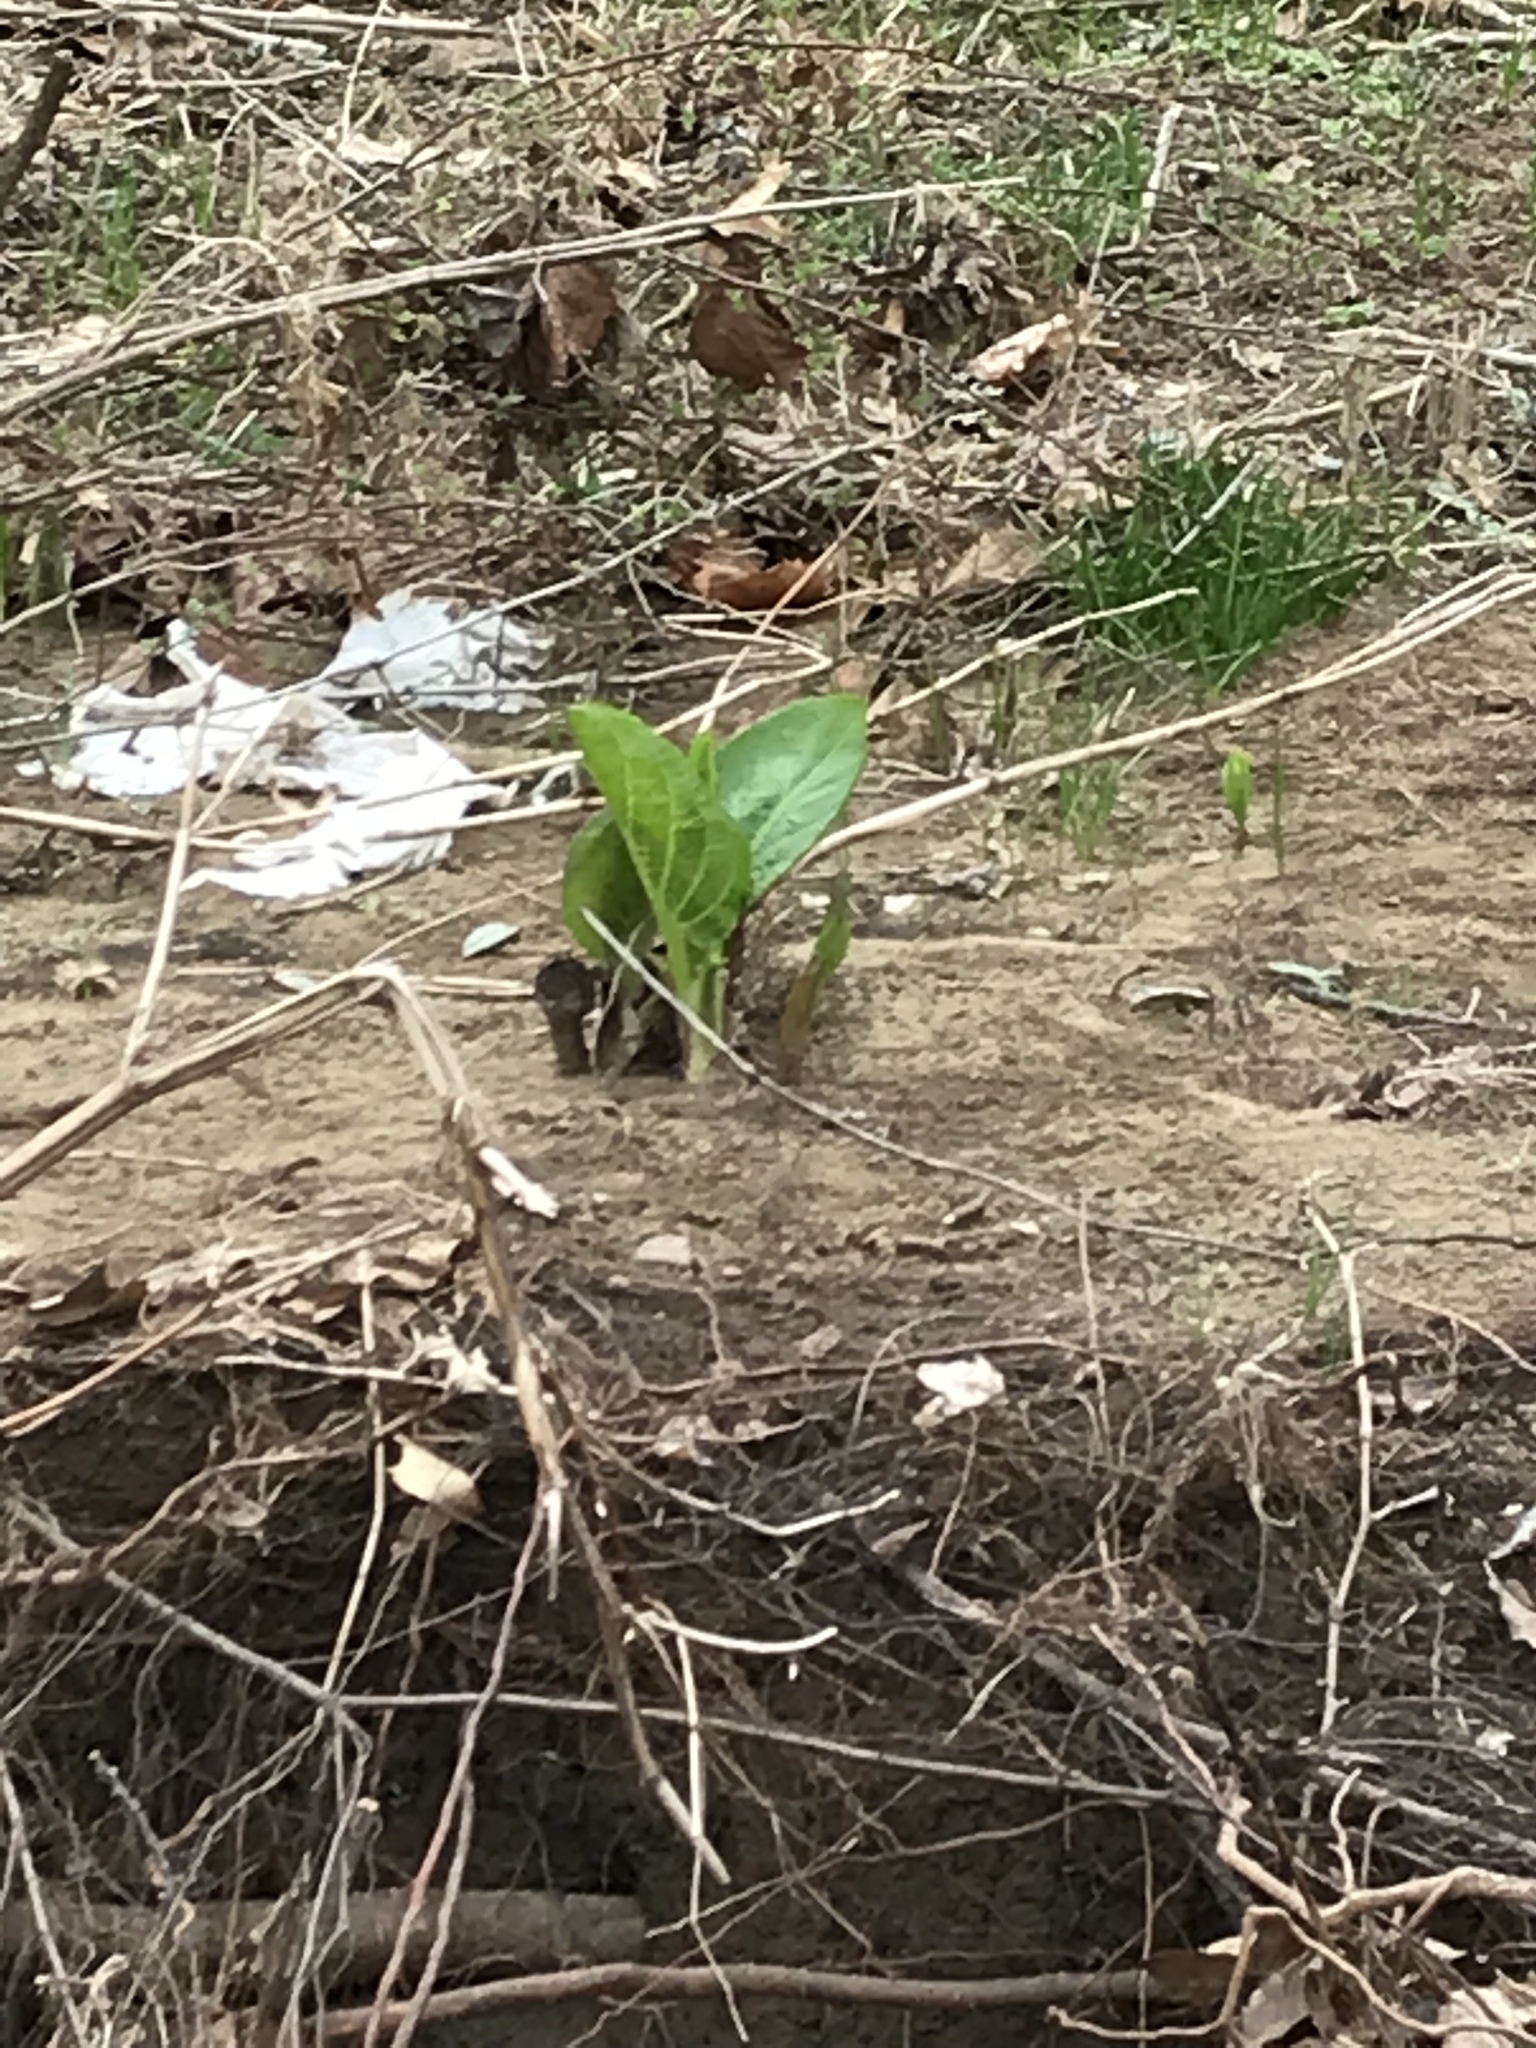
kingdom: Plantae
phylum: Tracheophyta
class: Liliopsida
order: Alismatales
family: Araceae
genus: Symplocarpus
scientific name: Symplocarpus foetidus
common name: Eastern skunk cabbage
